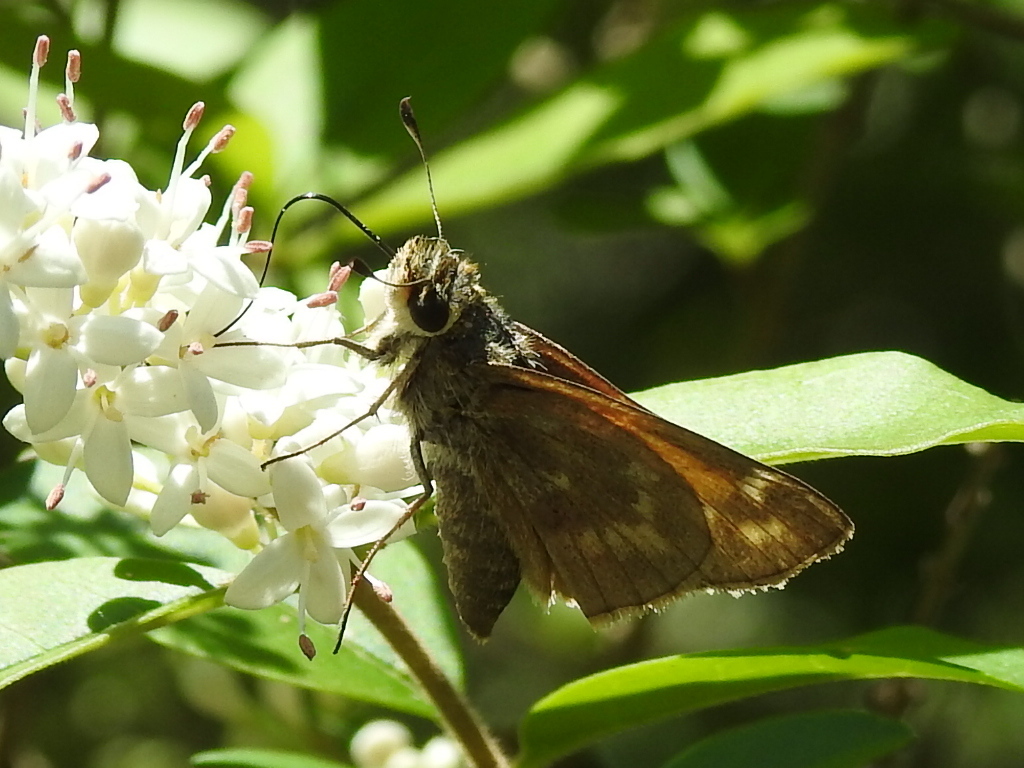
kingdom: Animalia
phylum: Arthropoda
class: Insecta
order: Lepidoptera
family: Hesperiidae
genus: Atalopedes
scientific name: Atalopedes
